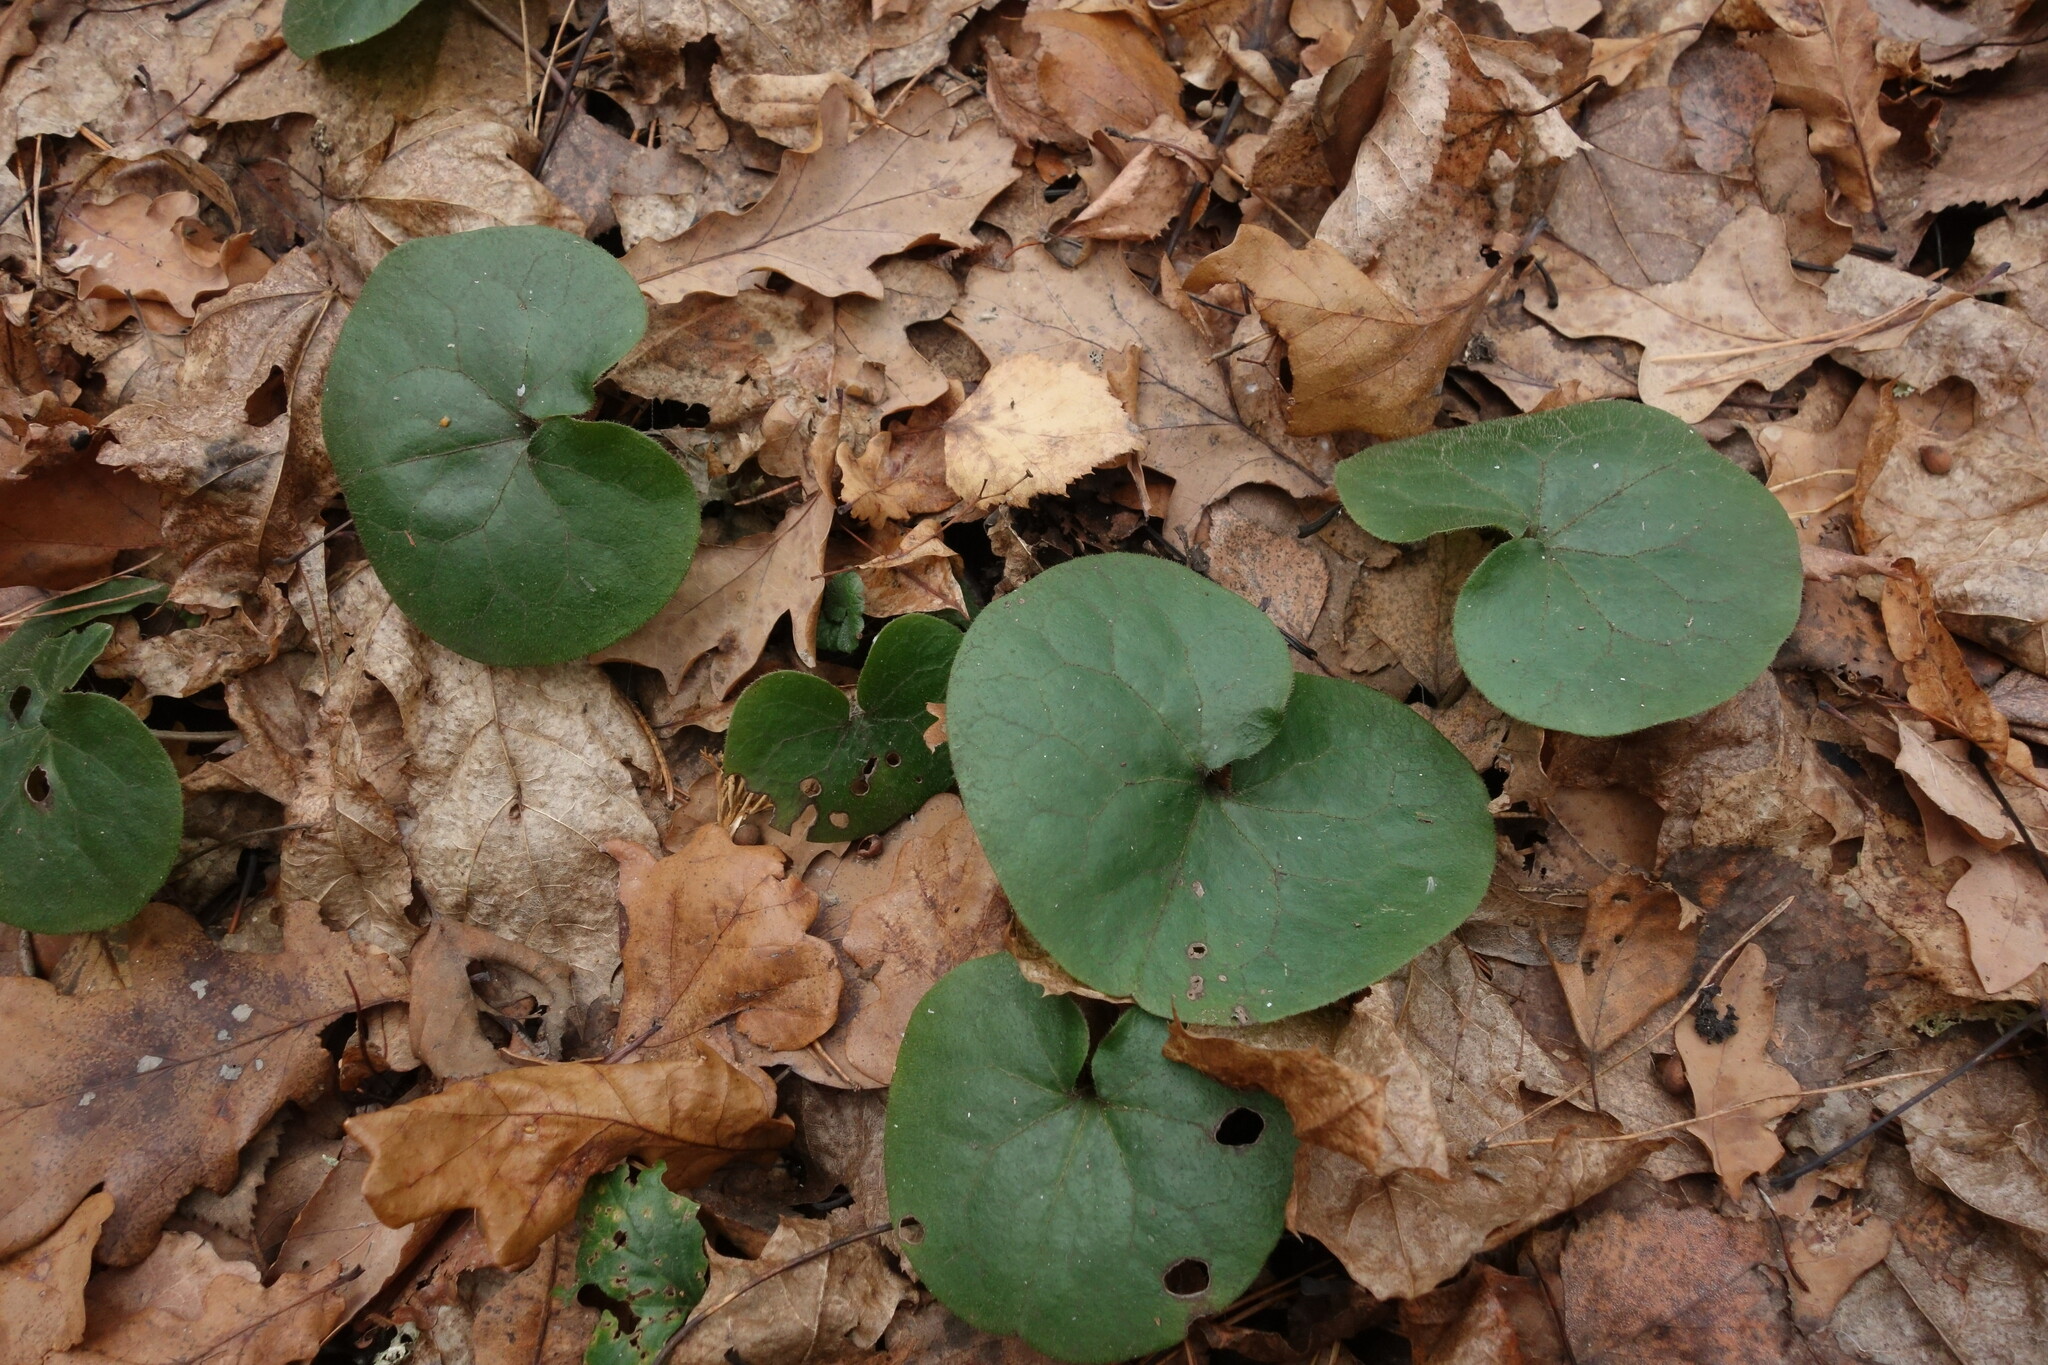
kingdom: Plantae
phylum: Tracheophyta
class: Magnoliopsida
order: Piperales
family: Aristolochiaceae
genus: Asarum
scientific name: Asarum europaeum
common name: Asarabacca
